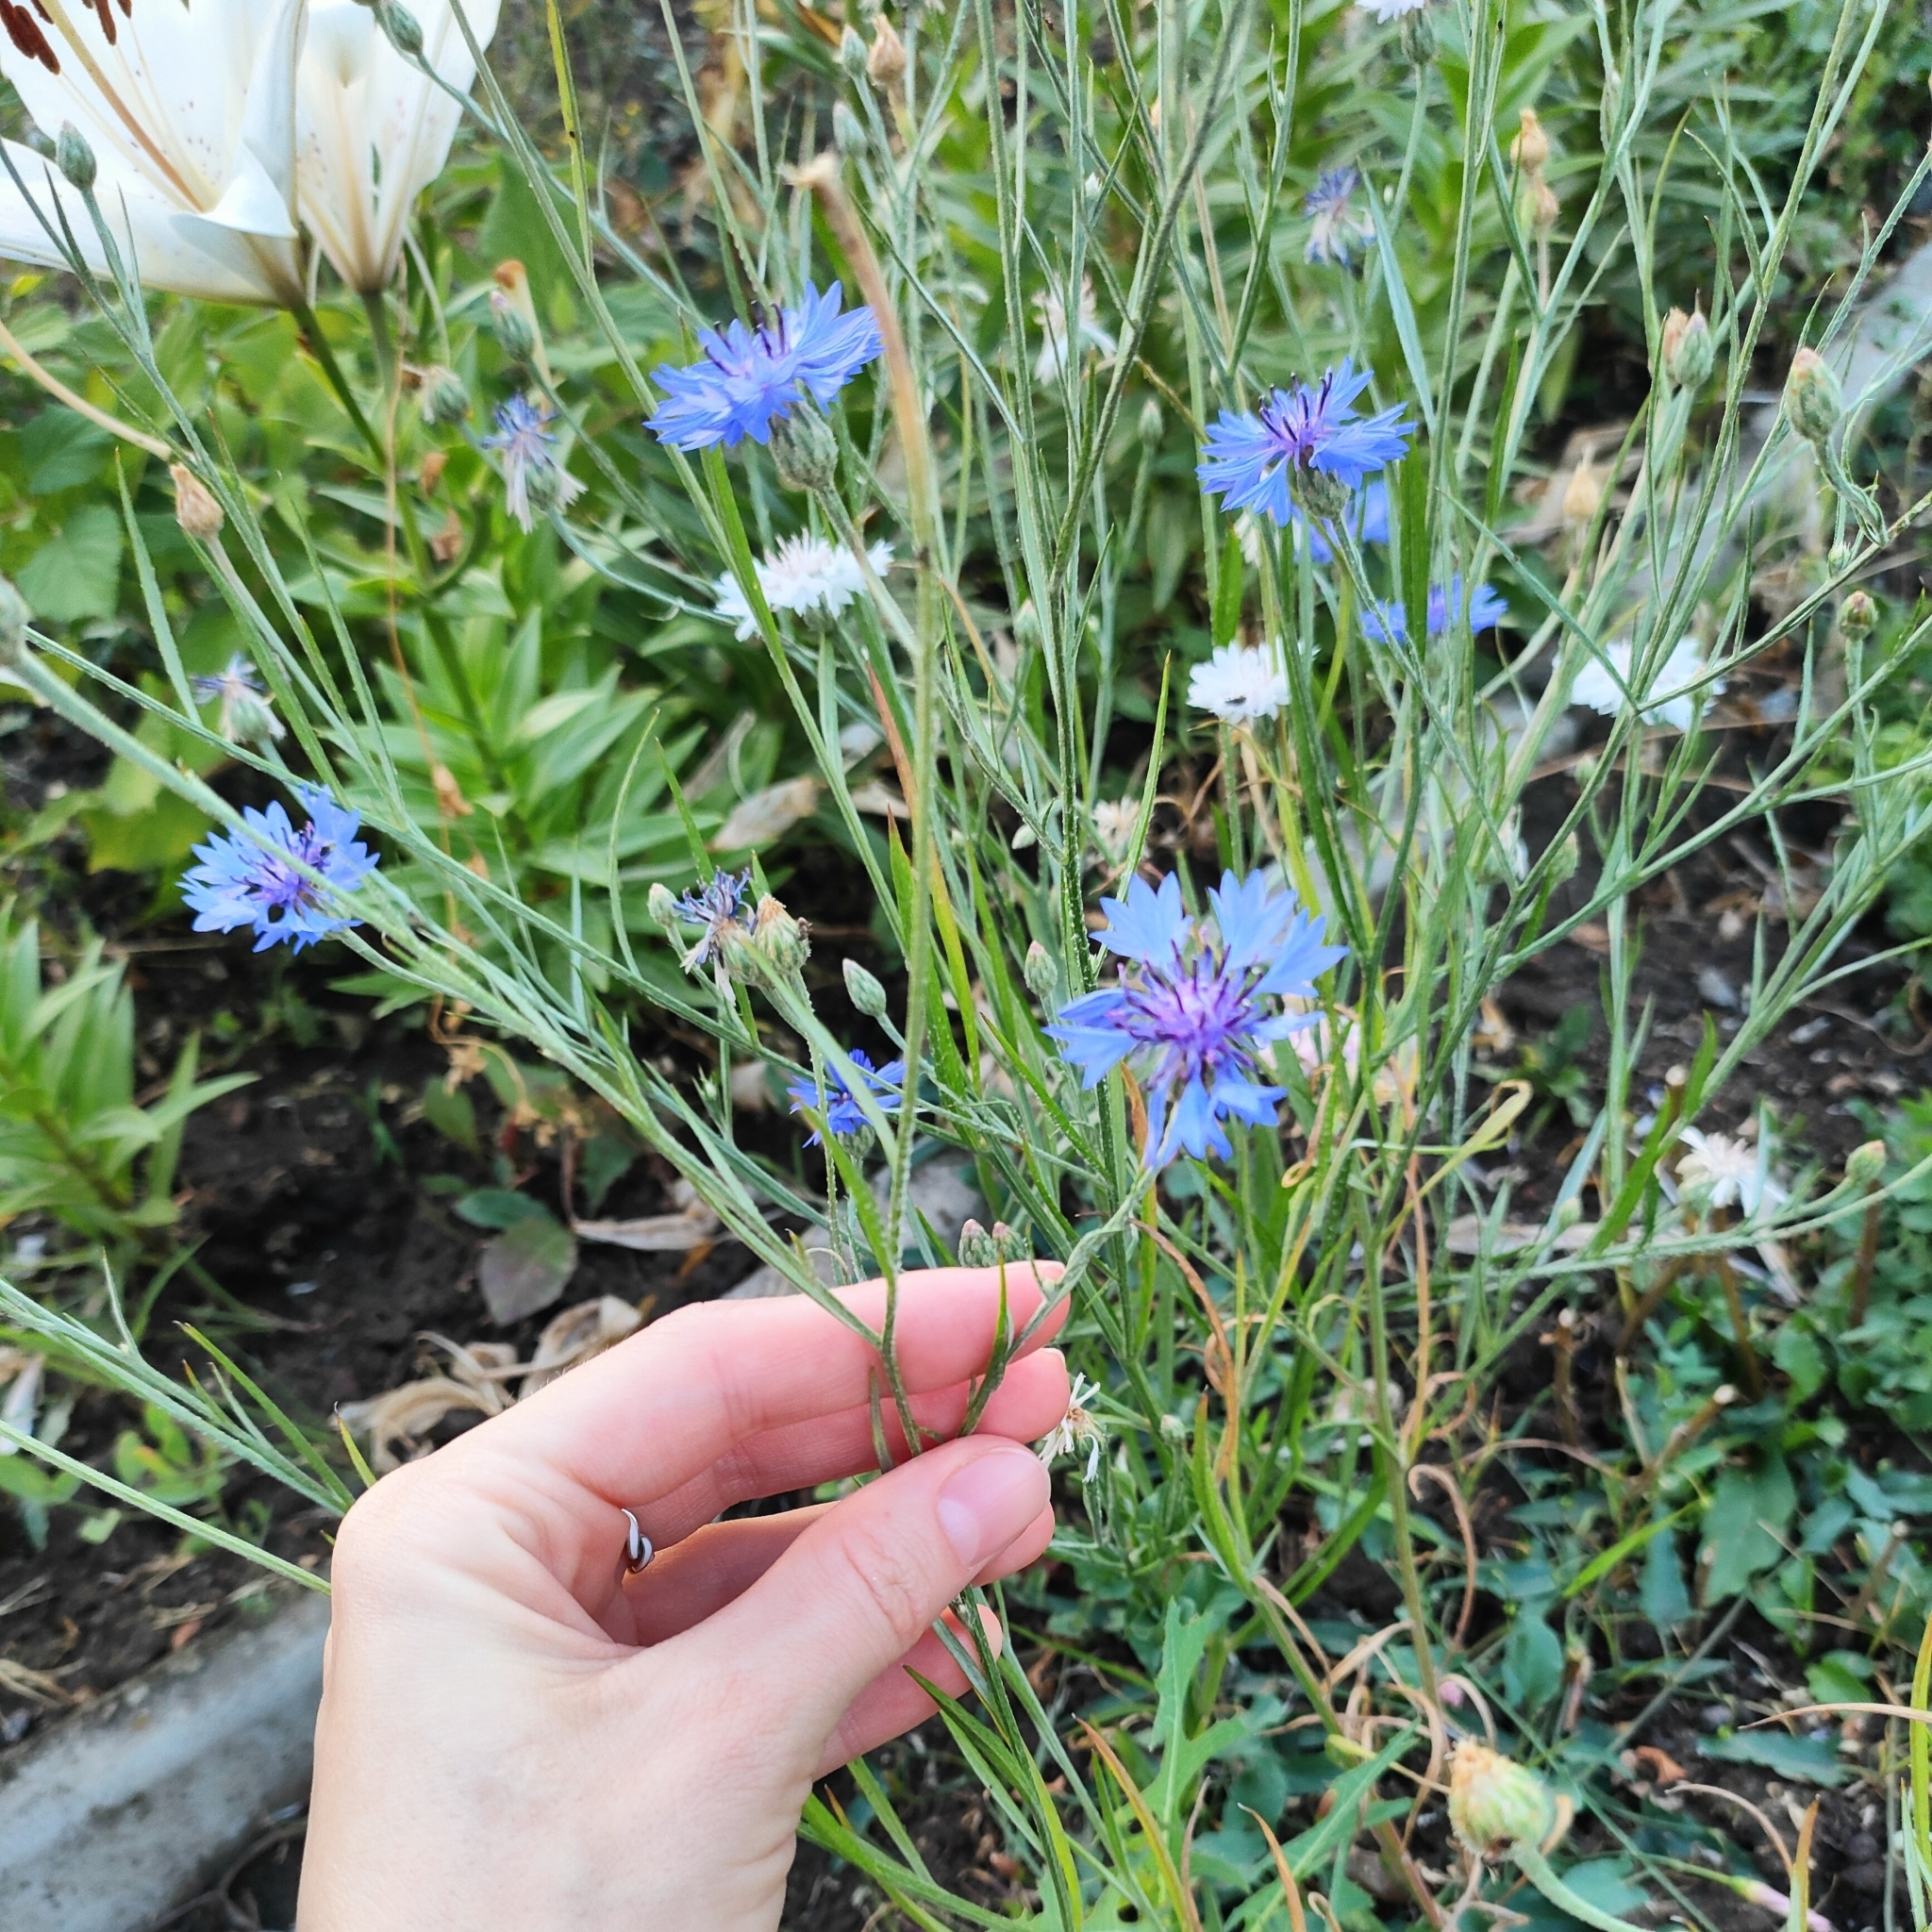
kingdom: Plantae
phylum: Tracheophyta
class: Magnoliopsida
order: Asterales
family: Asteraceae
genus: Centaurea
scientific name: Centaurea cyanus
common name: Cornflower
